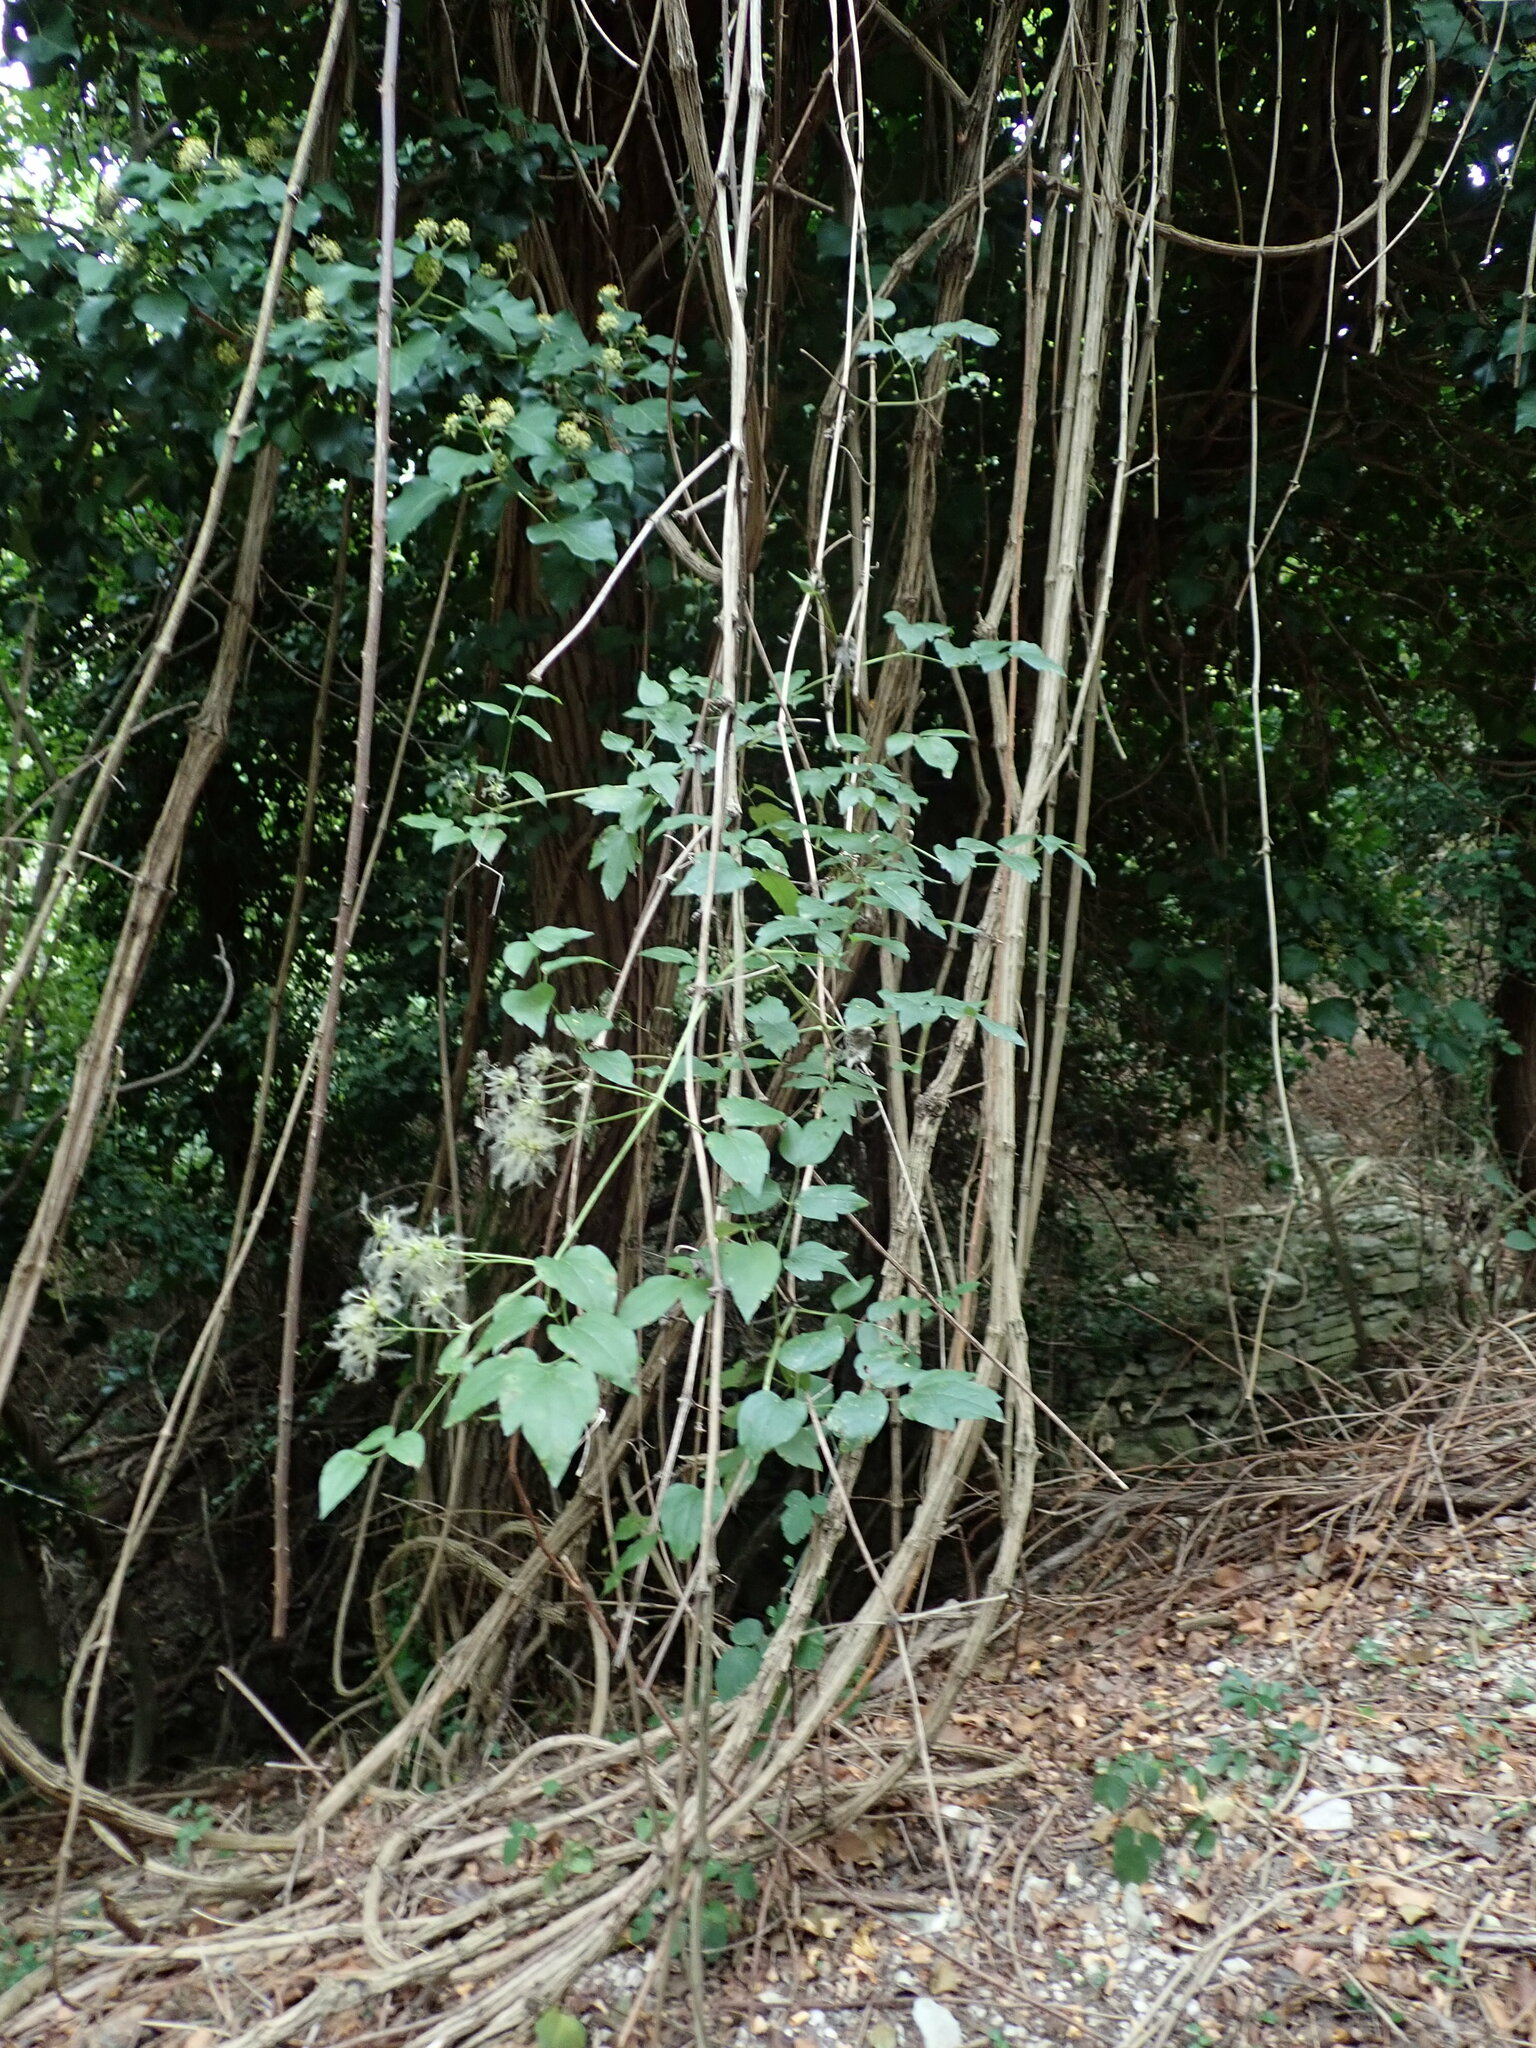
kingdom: Plantae
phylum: Tracheophyta
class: Magnoliopsida
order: Ranunculales
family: Ranunculaceae
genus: Clematis
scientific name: Clematis vitalba
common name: Evergreen clematis
